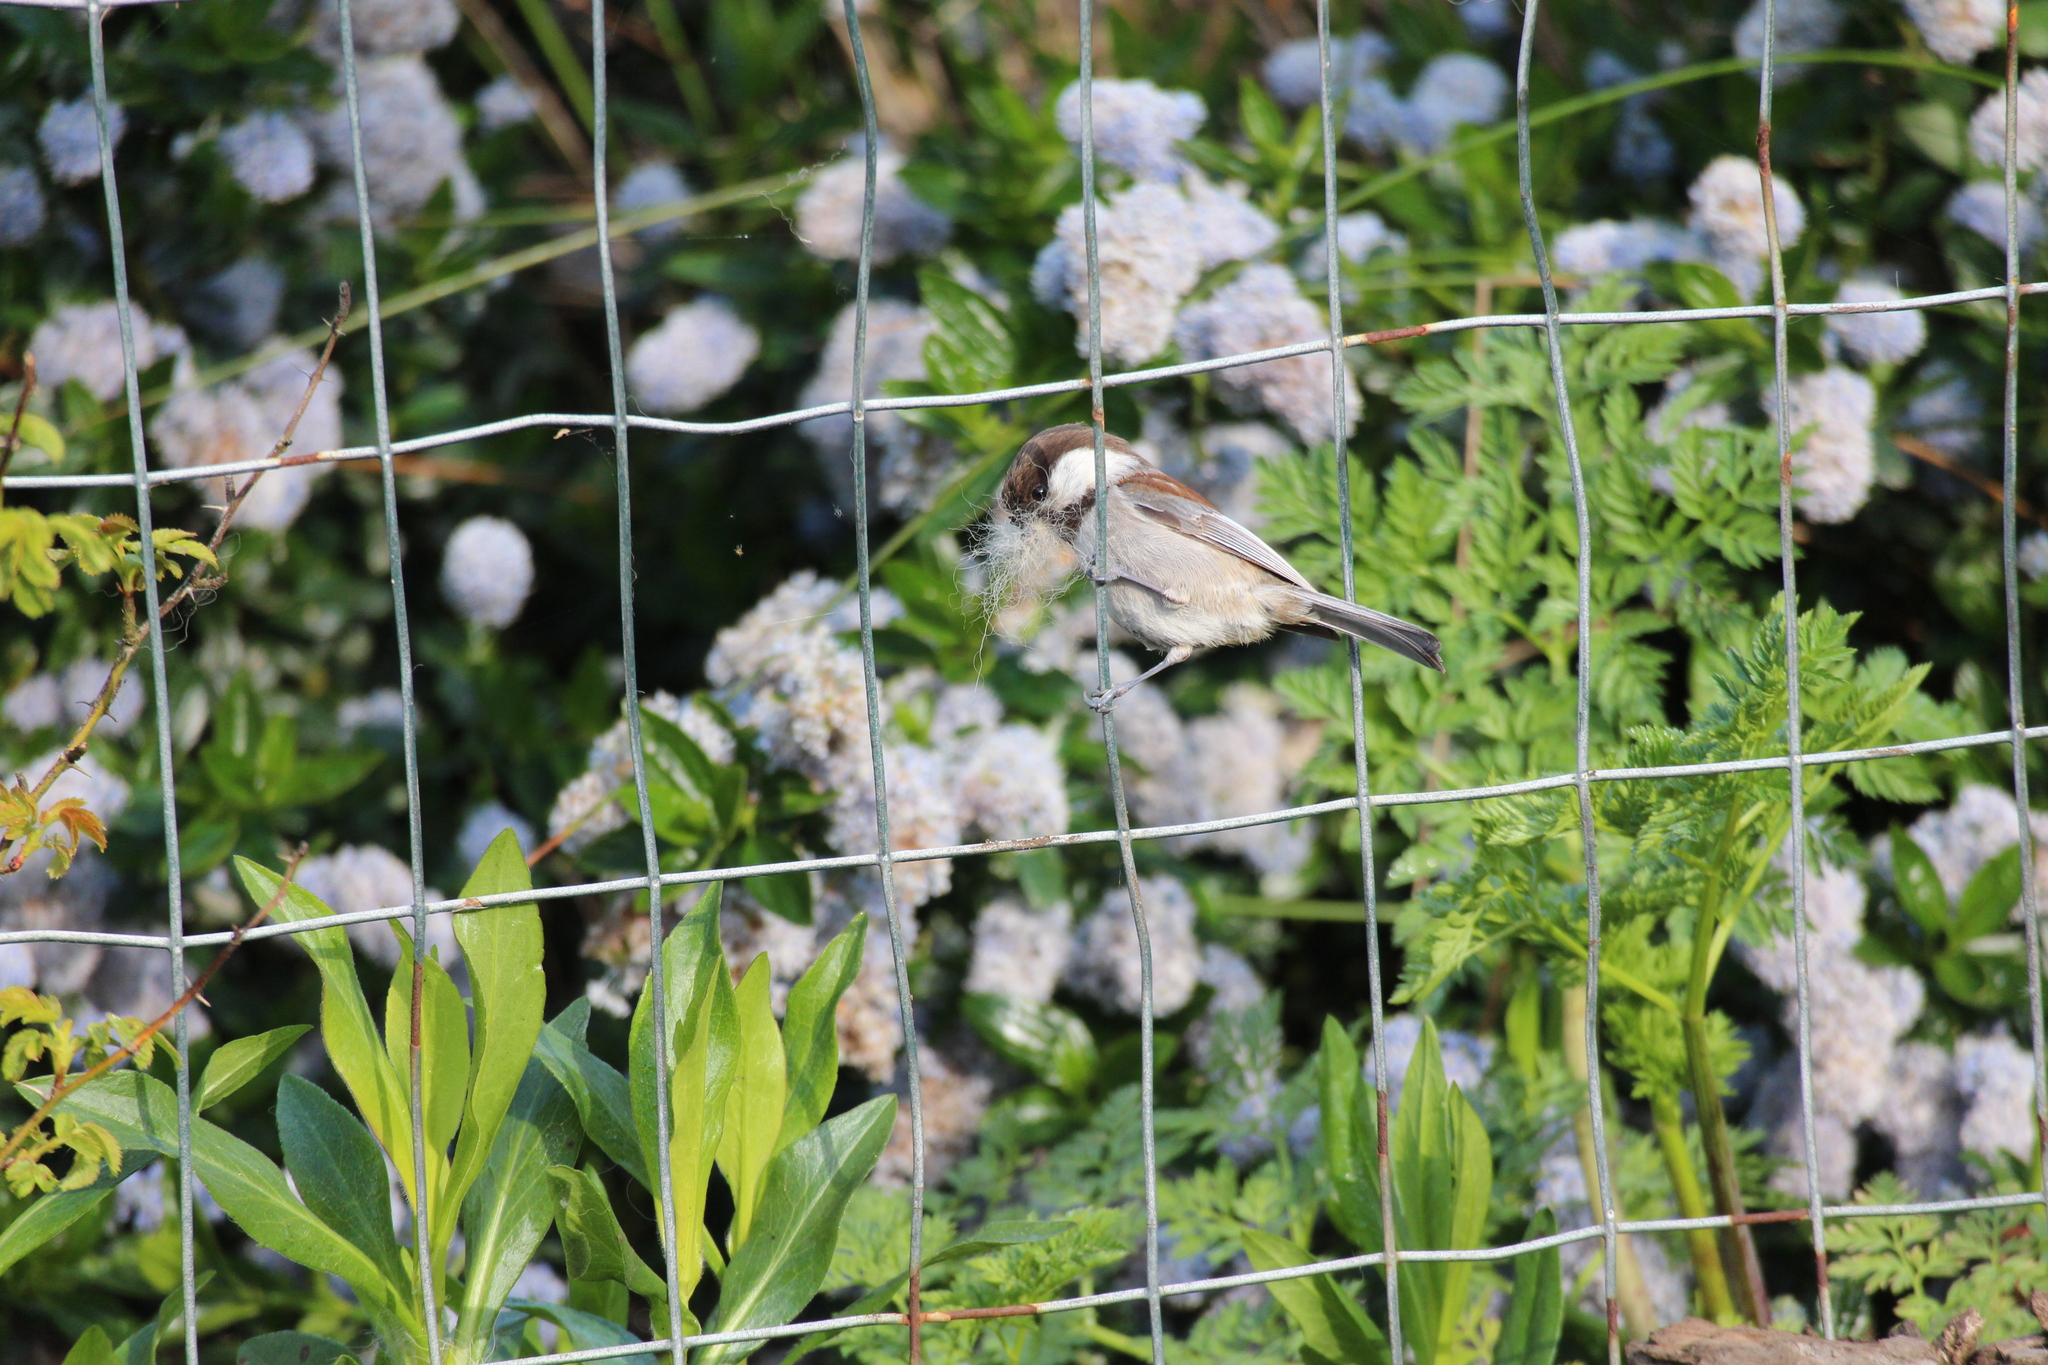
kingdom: Animalia
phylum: Chordata
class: Aves
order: Passeriformes
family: Paridae
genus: Poecile
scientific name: Poecile rufescens
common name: Chestnut-backed chickadee
